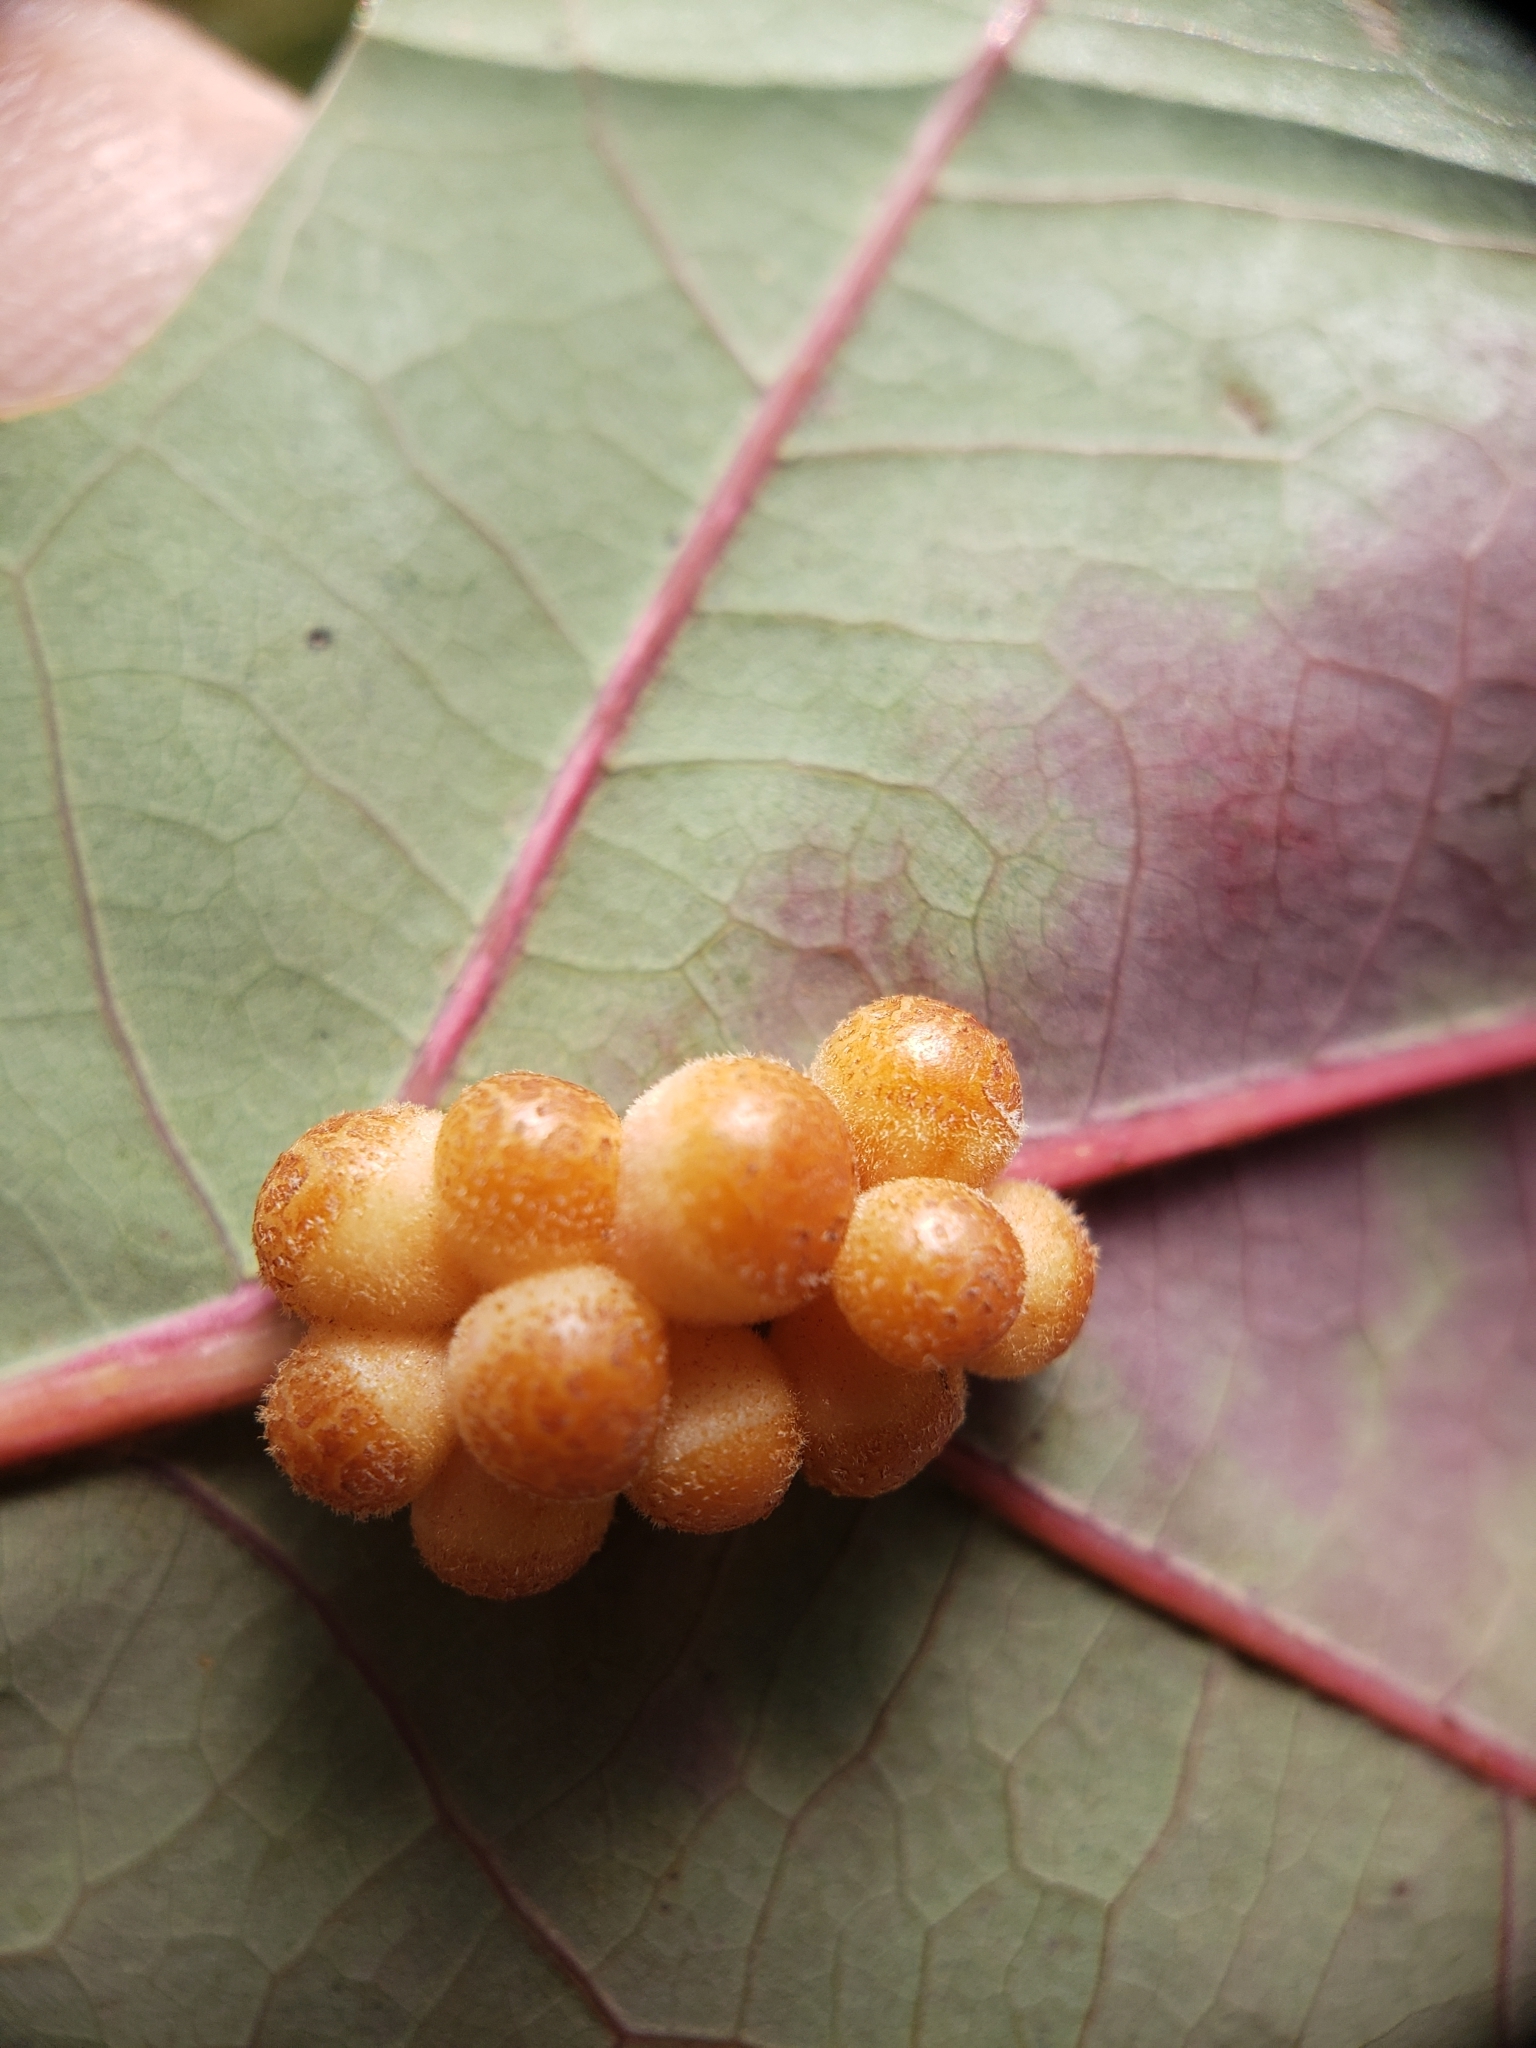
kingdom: Animalia
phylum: Arthropoda
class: Insecta
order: Hymenoptera
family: Cynipidae
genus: Andricus
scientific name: Andricus
